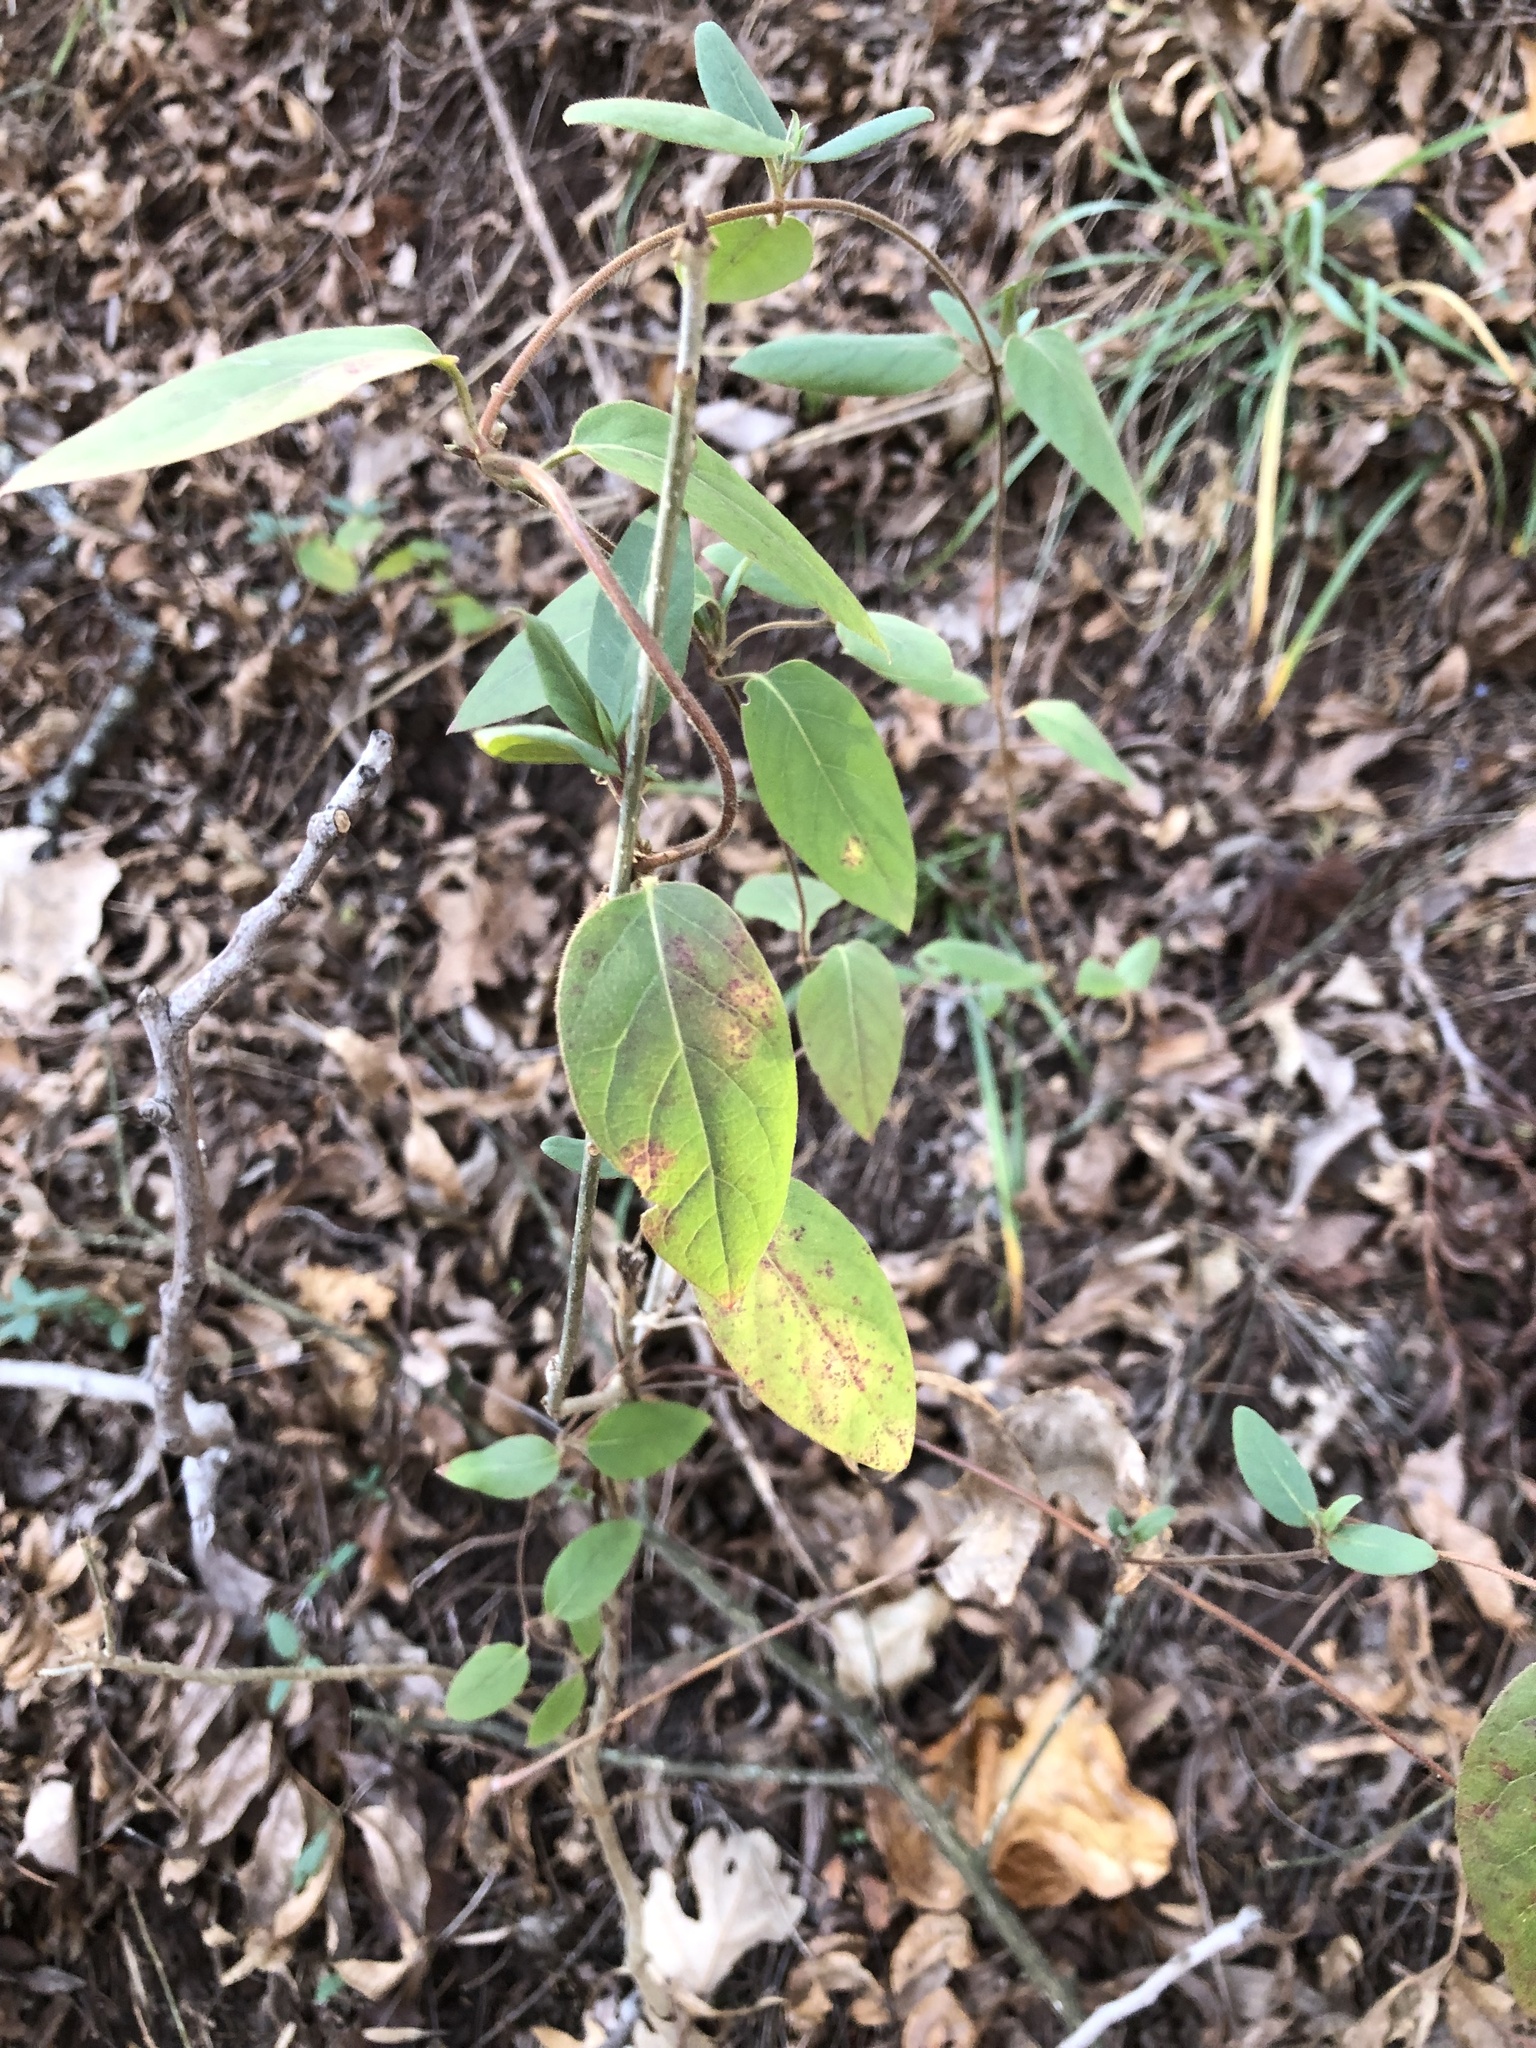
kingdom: Plantae
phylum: Tracheophyta
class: Magnoliopsida
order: Dipsacales
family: Caprifoliaceae
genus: Lonicera
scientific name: Lonicera japonica
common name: Japanese honeysuckle
